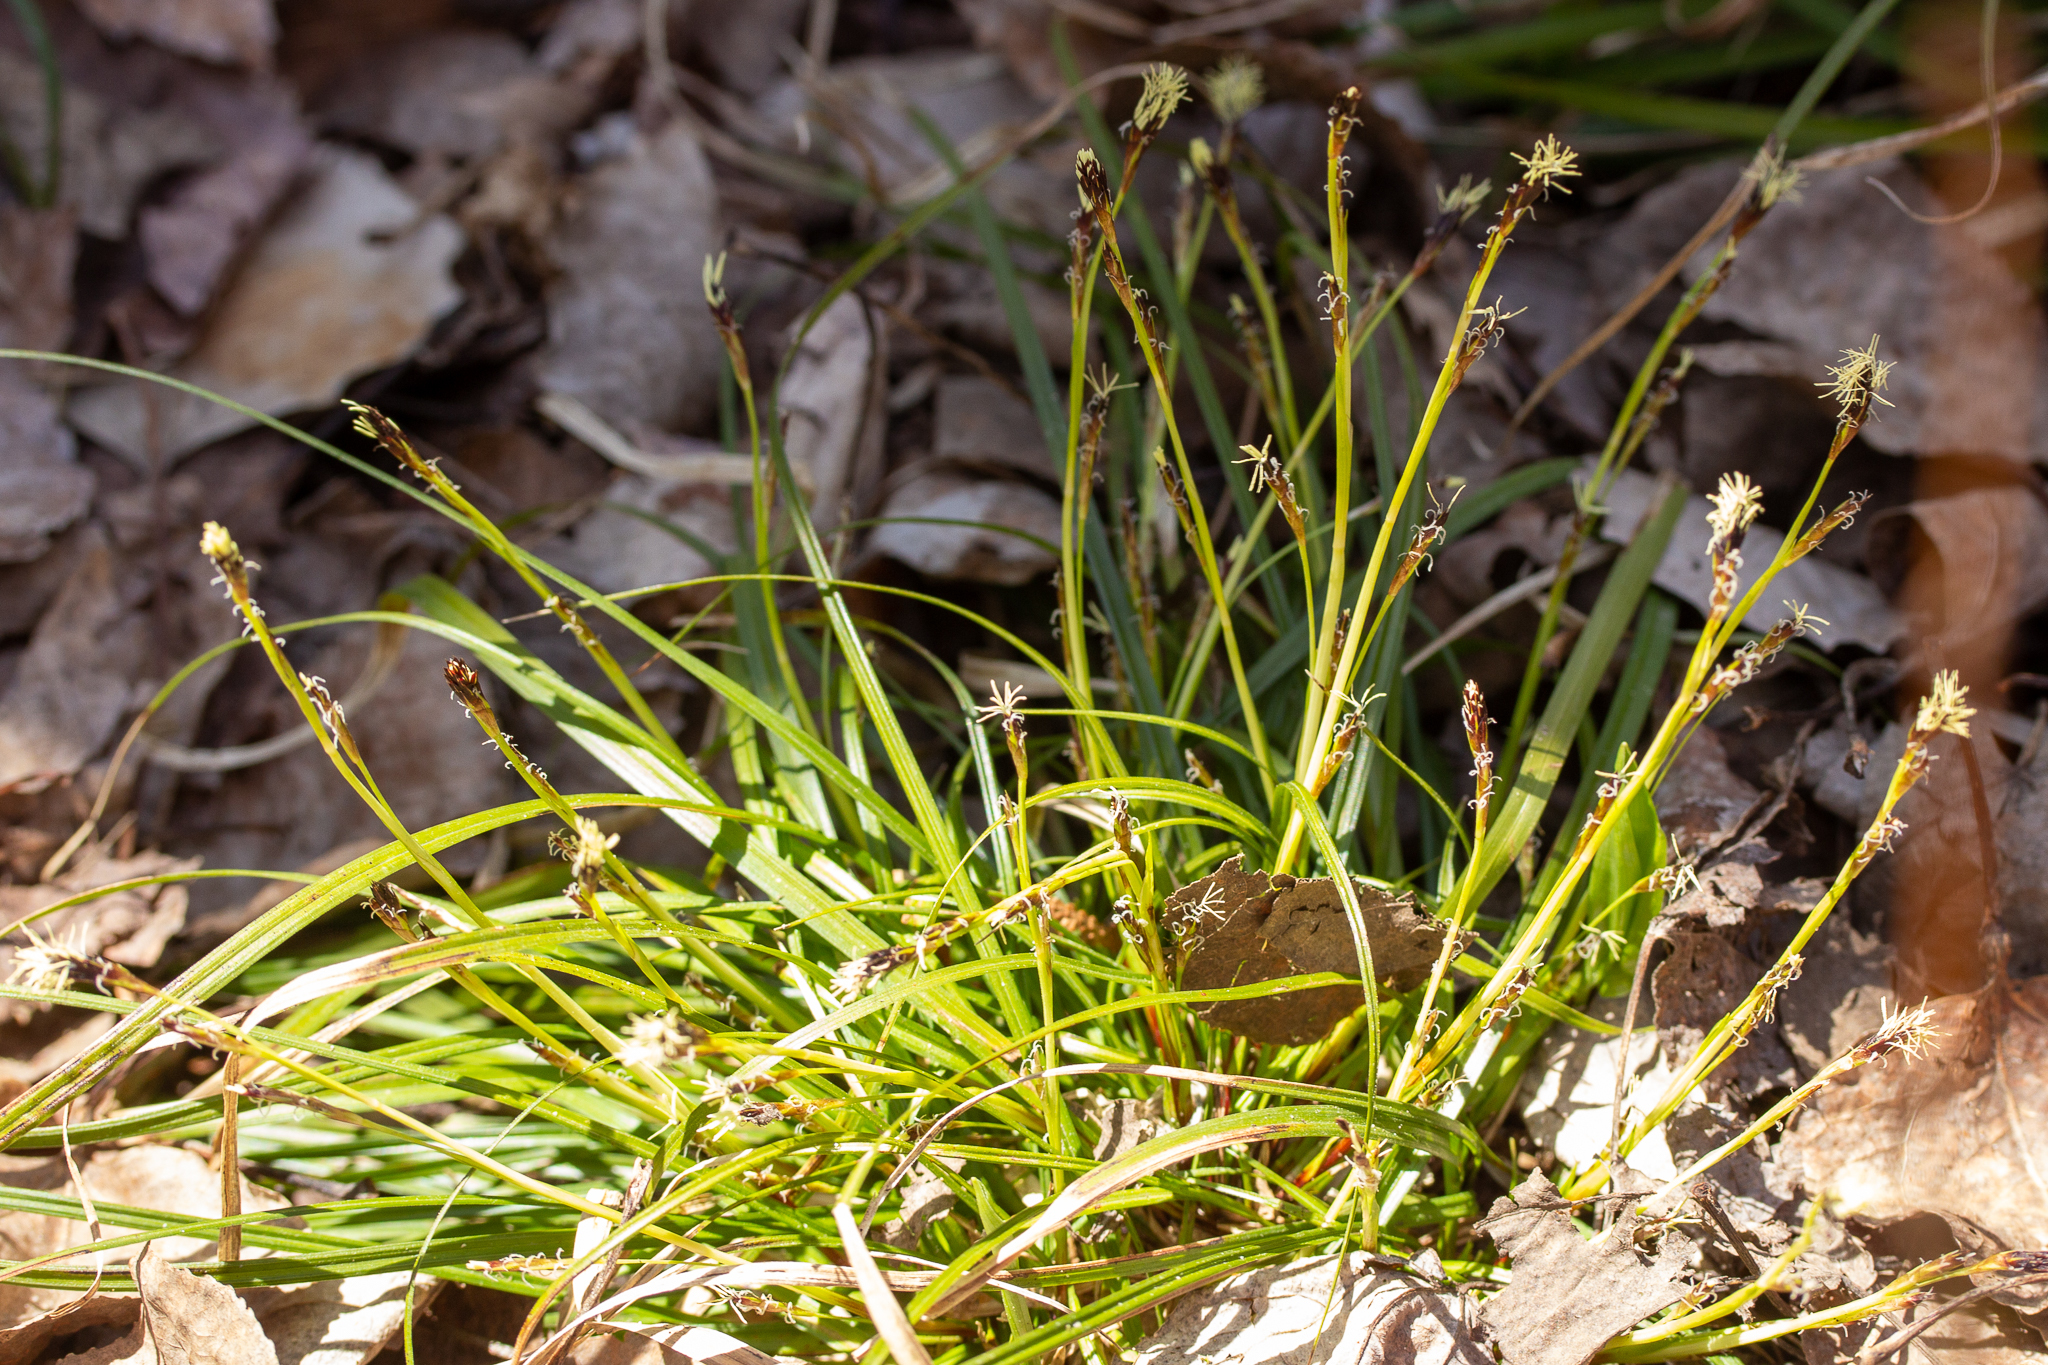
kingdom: Plantae
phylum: Tracheophyta
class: Liliopsida
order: Poales
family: Cyperaceae
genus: Carex
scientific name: Carex pedunculata
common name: Pedunculate sedge
